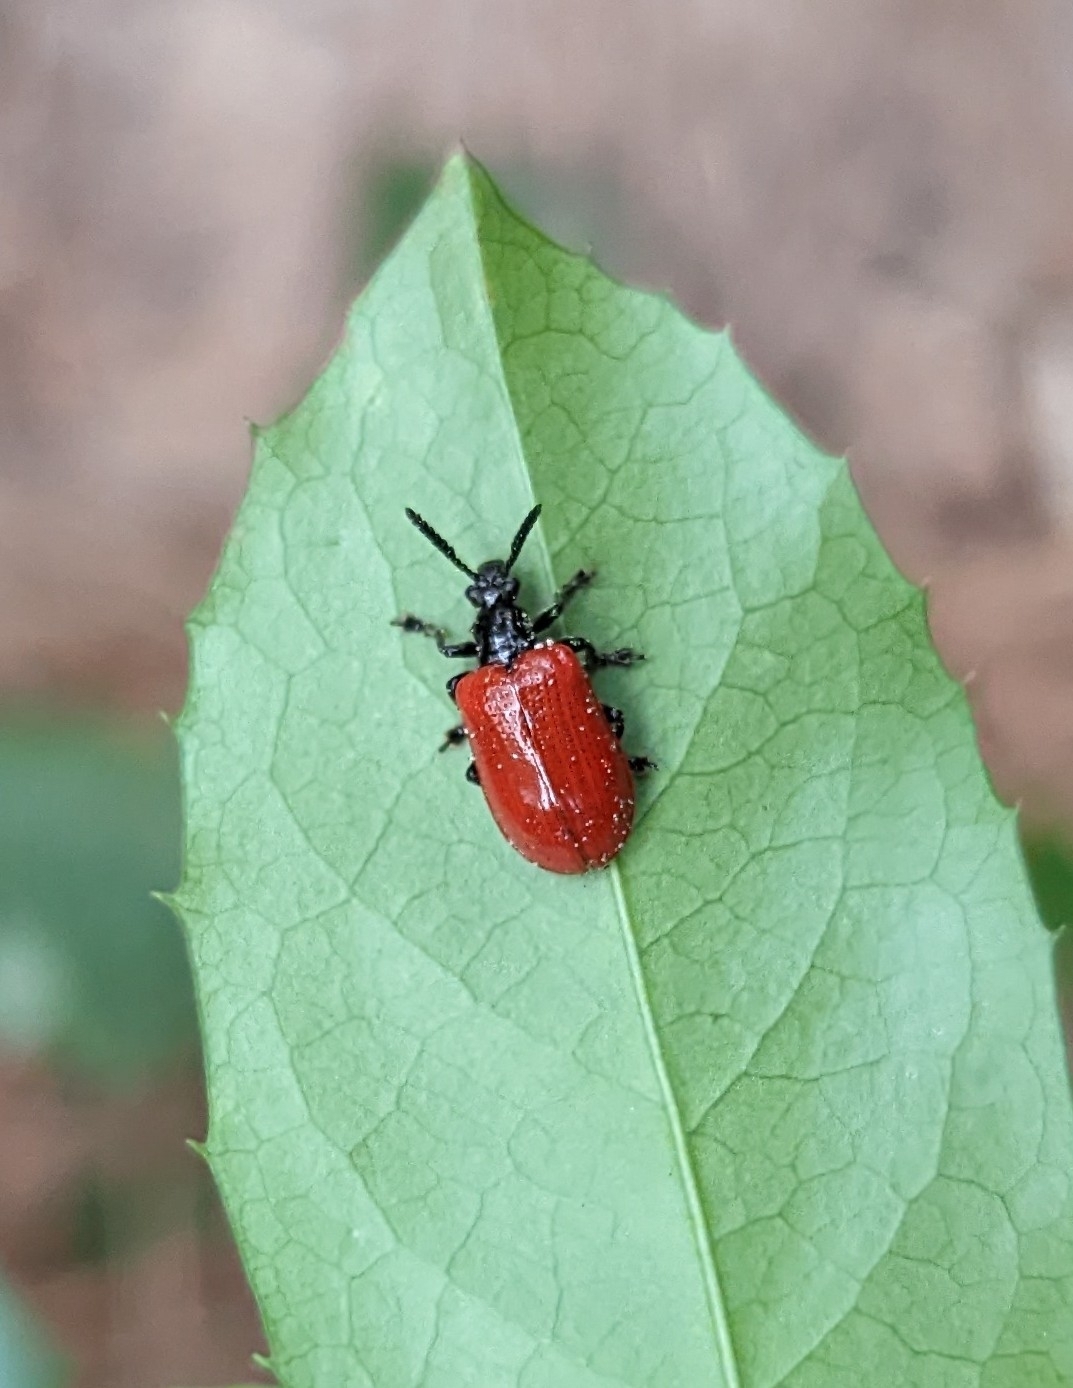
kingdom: Animalia
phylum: Arthropoda
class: Insecta
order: Coleoptera
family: Chrysomelidae
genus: Lilioceris
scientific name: Lilioceris cheni
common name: Leaf beetle
